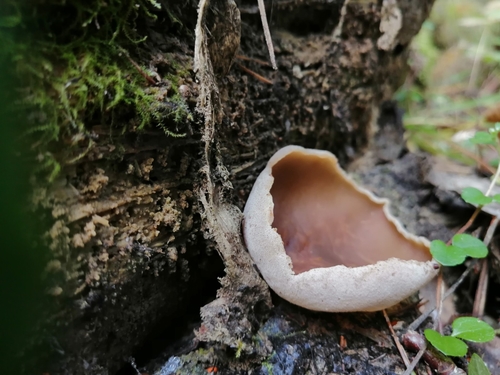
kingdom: Fungi
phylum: Ascomycota
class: Pezizomycetes
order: Pezizales
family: Pezizaceae
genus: Peziza
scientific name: Peziza varia
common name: Layered cup
